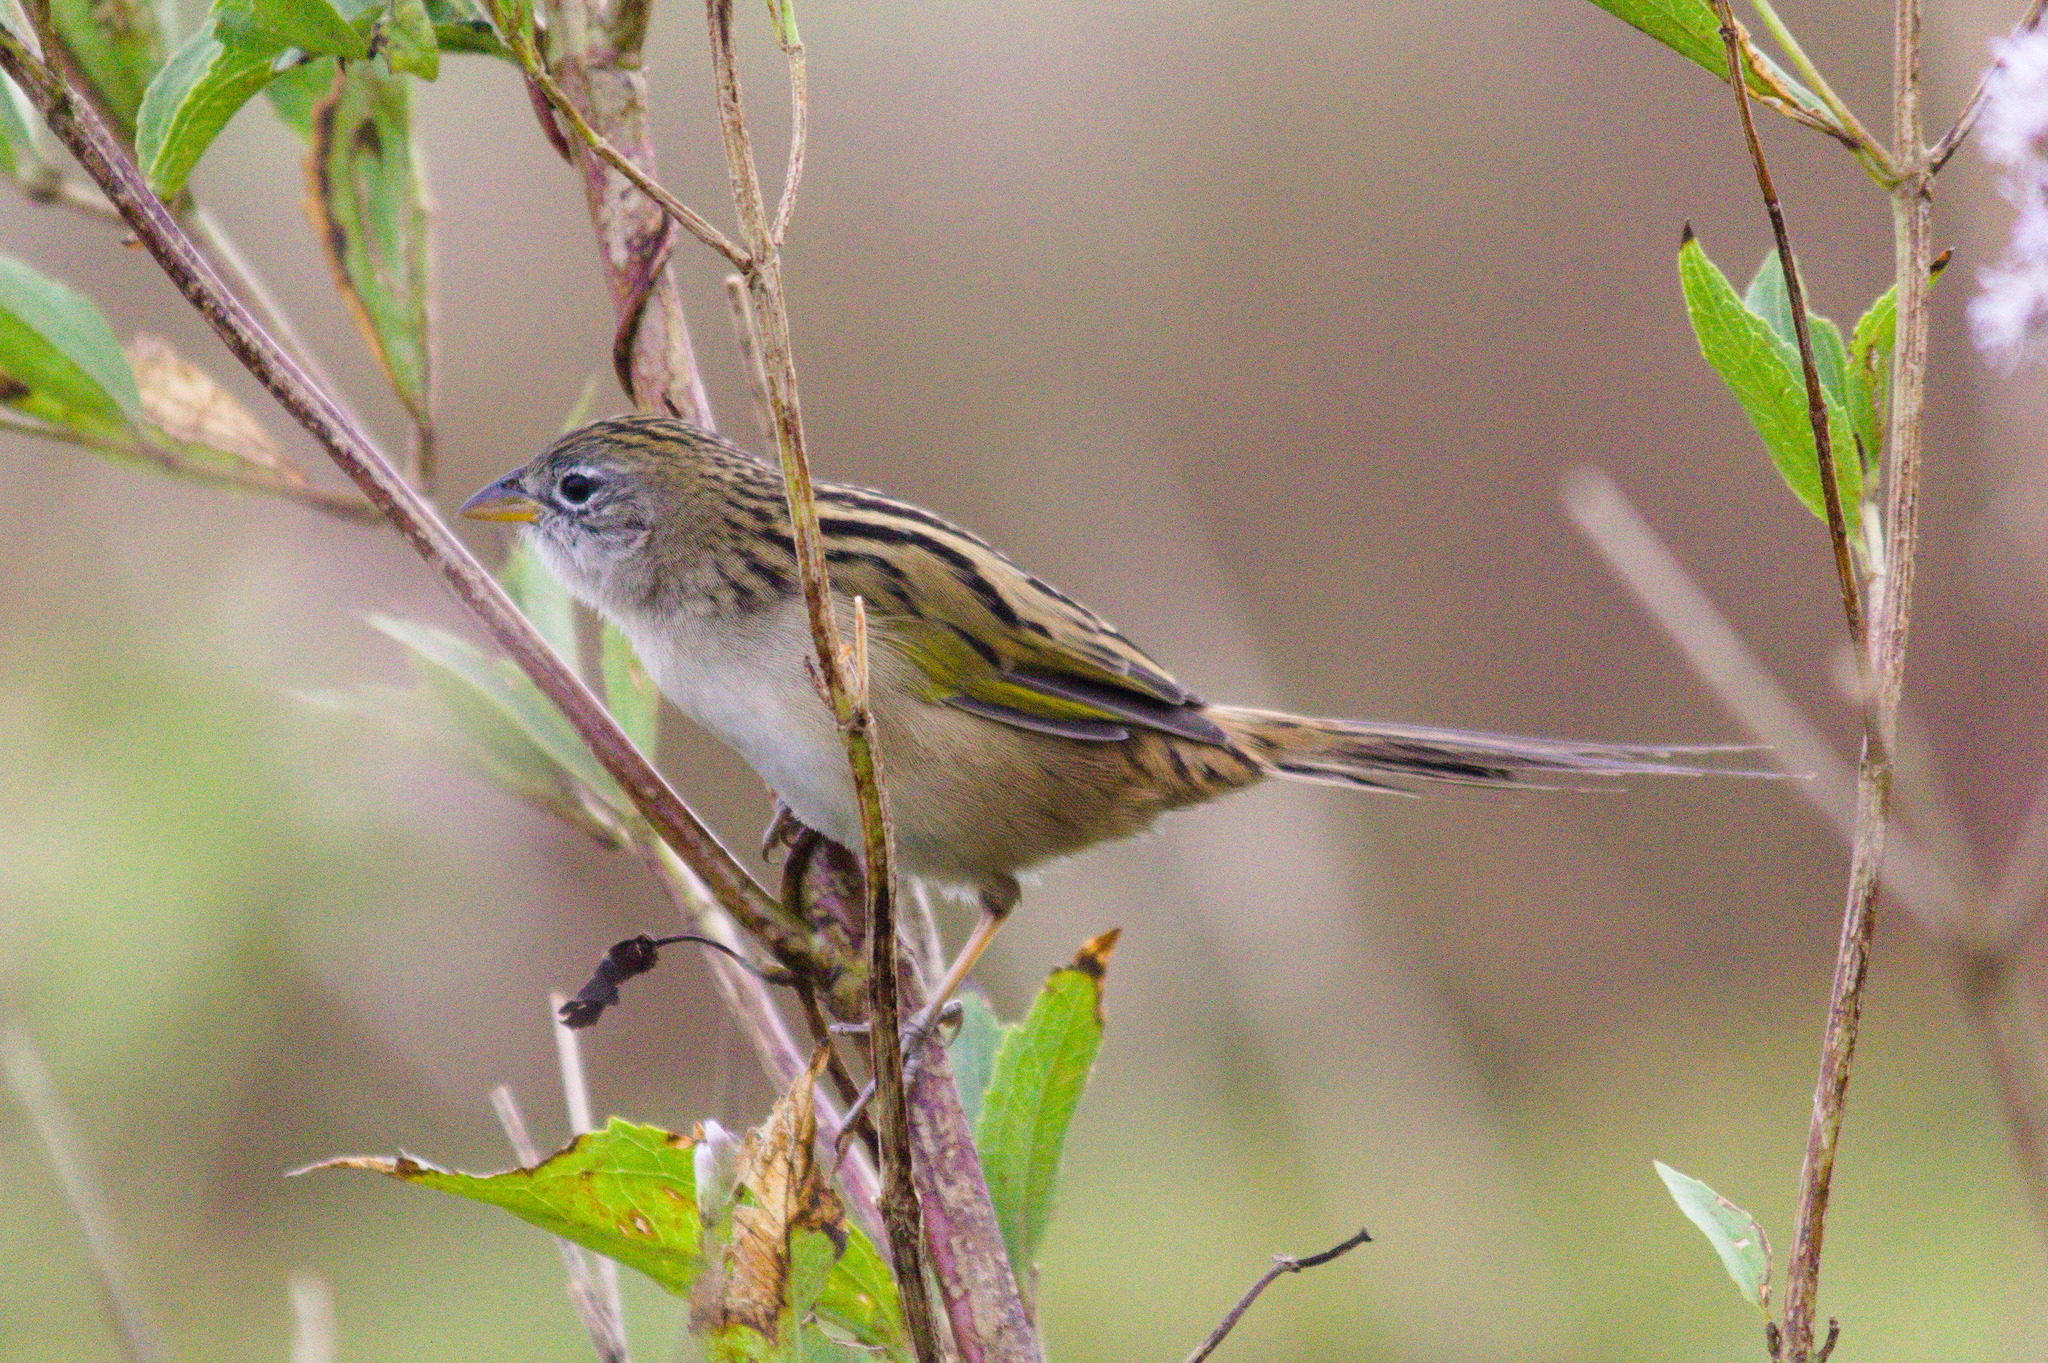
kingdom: Animalia
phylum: Chordata
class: Aves
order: Passeriformes
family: Thraupidae
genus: Emberizoides
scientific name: Emberizoides ypiranganus
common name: Lesser grass finch
